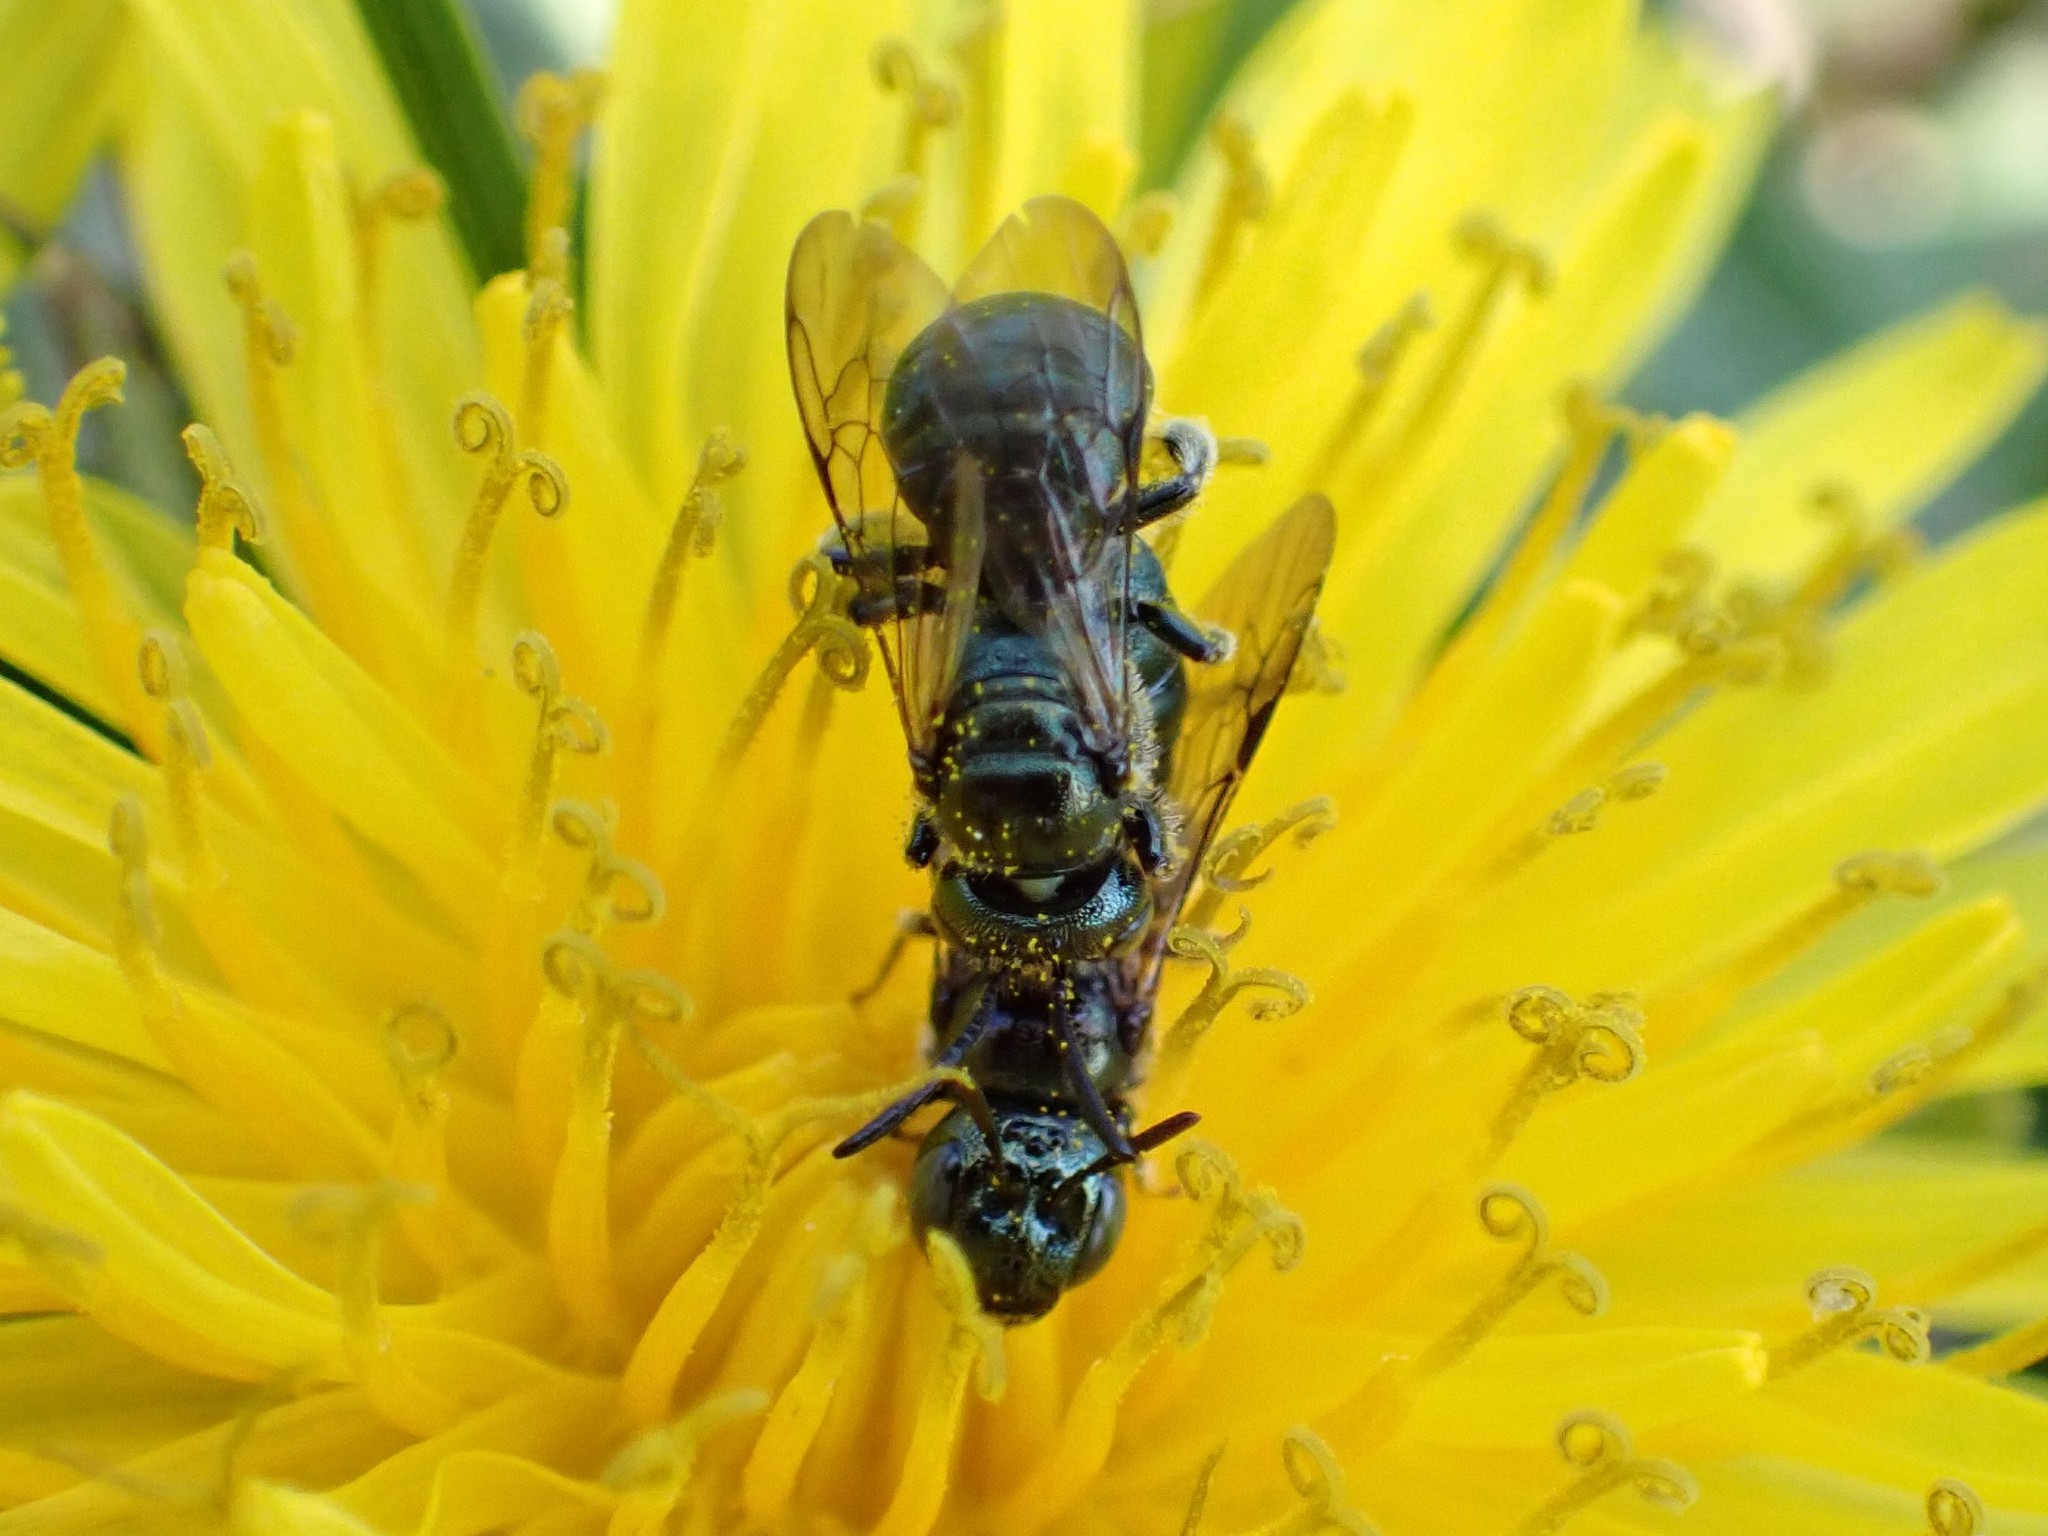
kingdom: Animalia
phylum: Arthropoda
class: Insecta
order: Hymenoptera
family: Apidae
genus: Zadontomerus
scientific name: Zadontomerus
